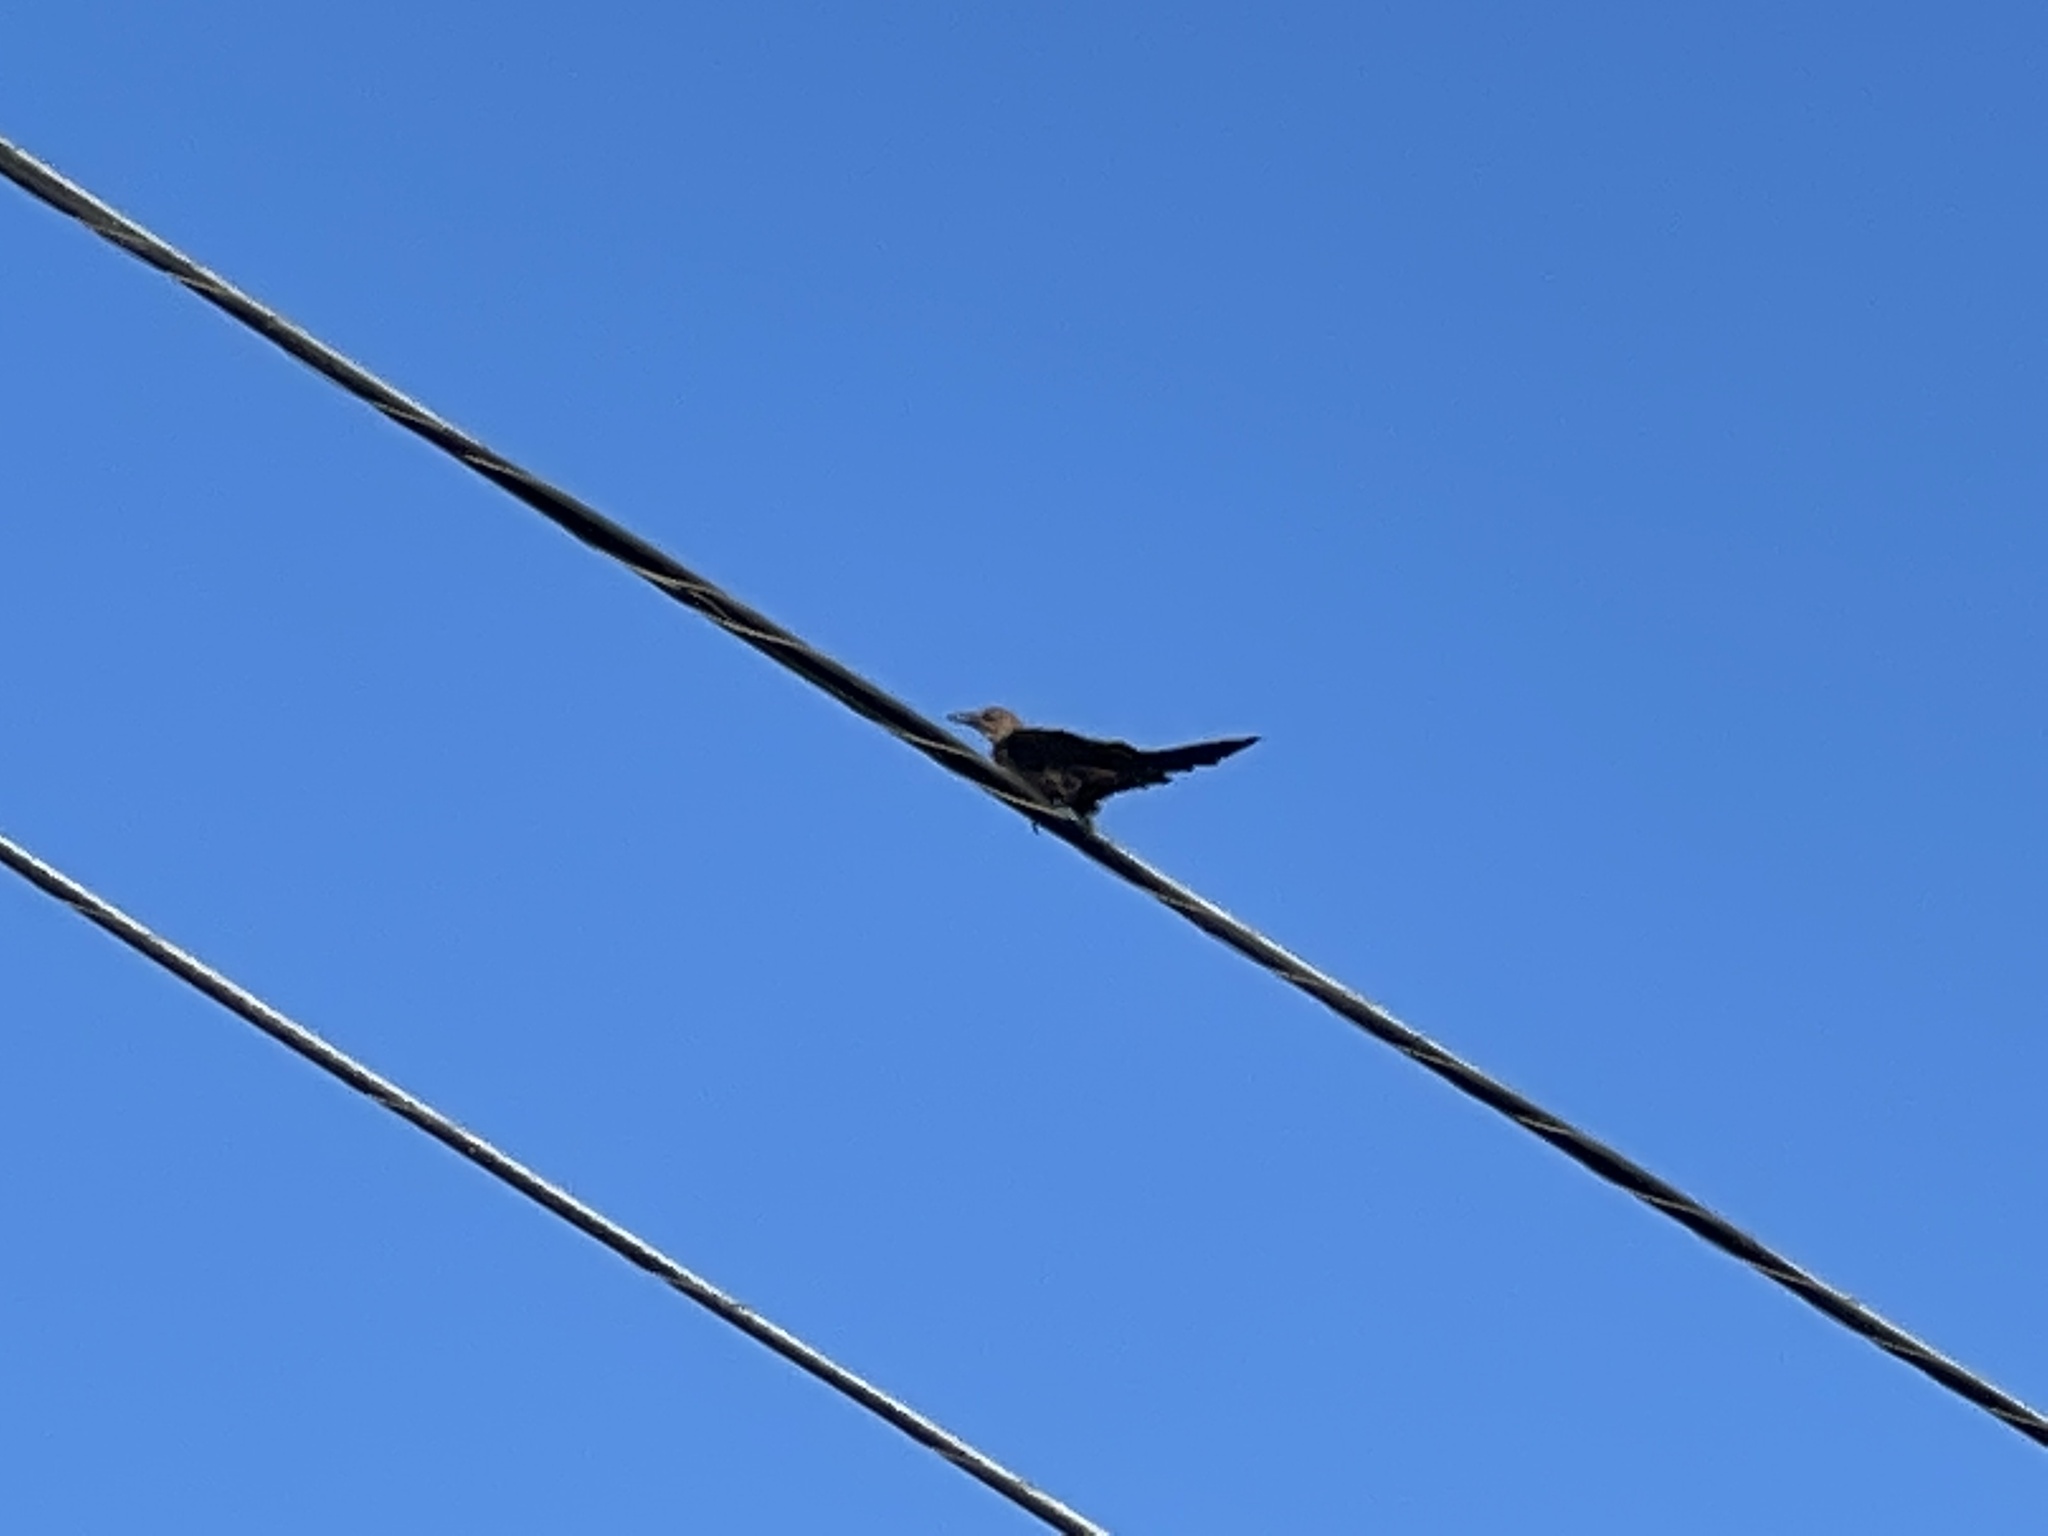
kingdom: Animalia
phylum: Chordata
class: Aves
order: Passeriformes
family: Icteridae
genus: Quiscalus
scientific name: Quiscalus mexicanus
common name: Great-tailed grackle
